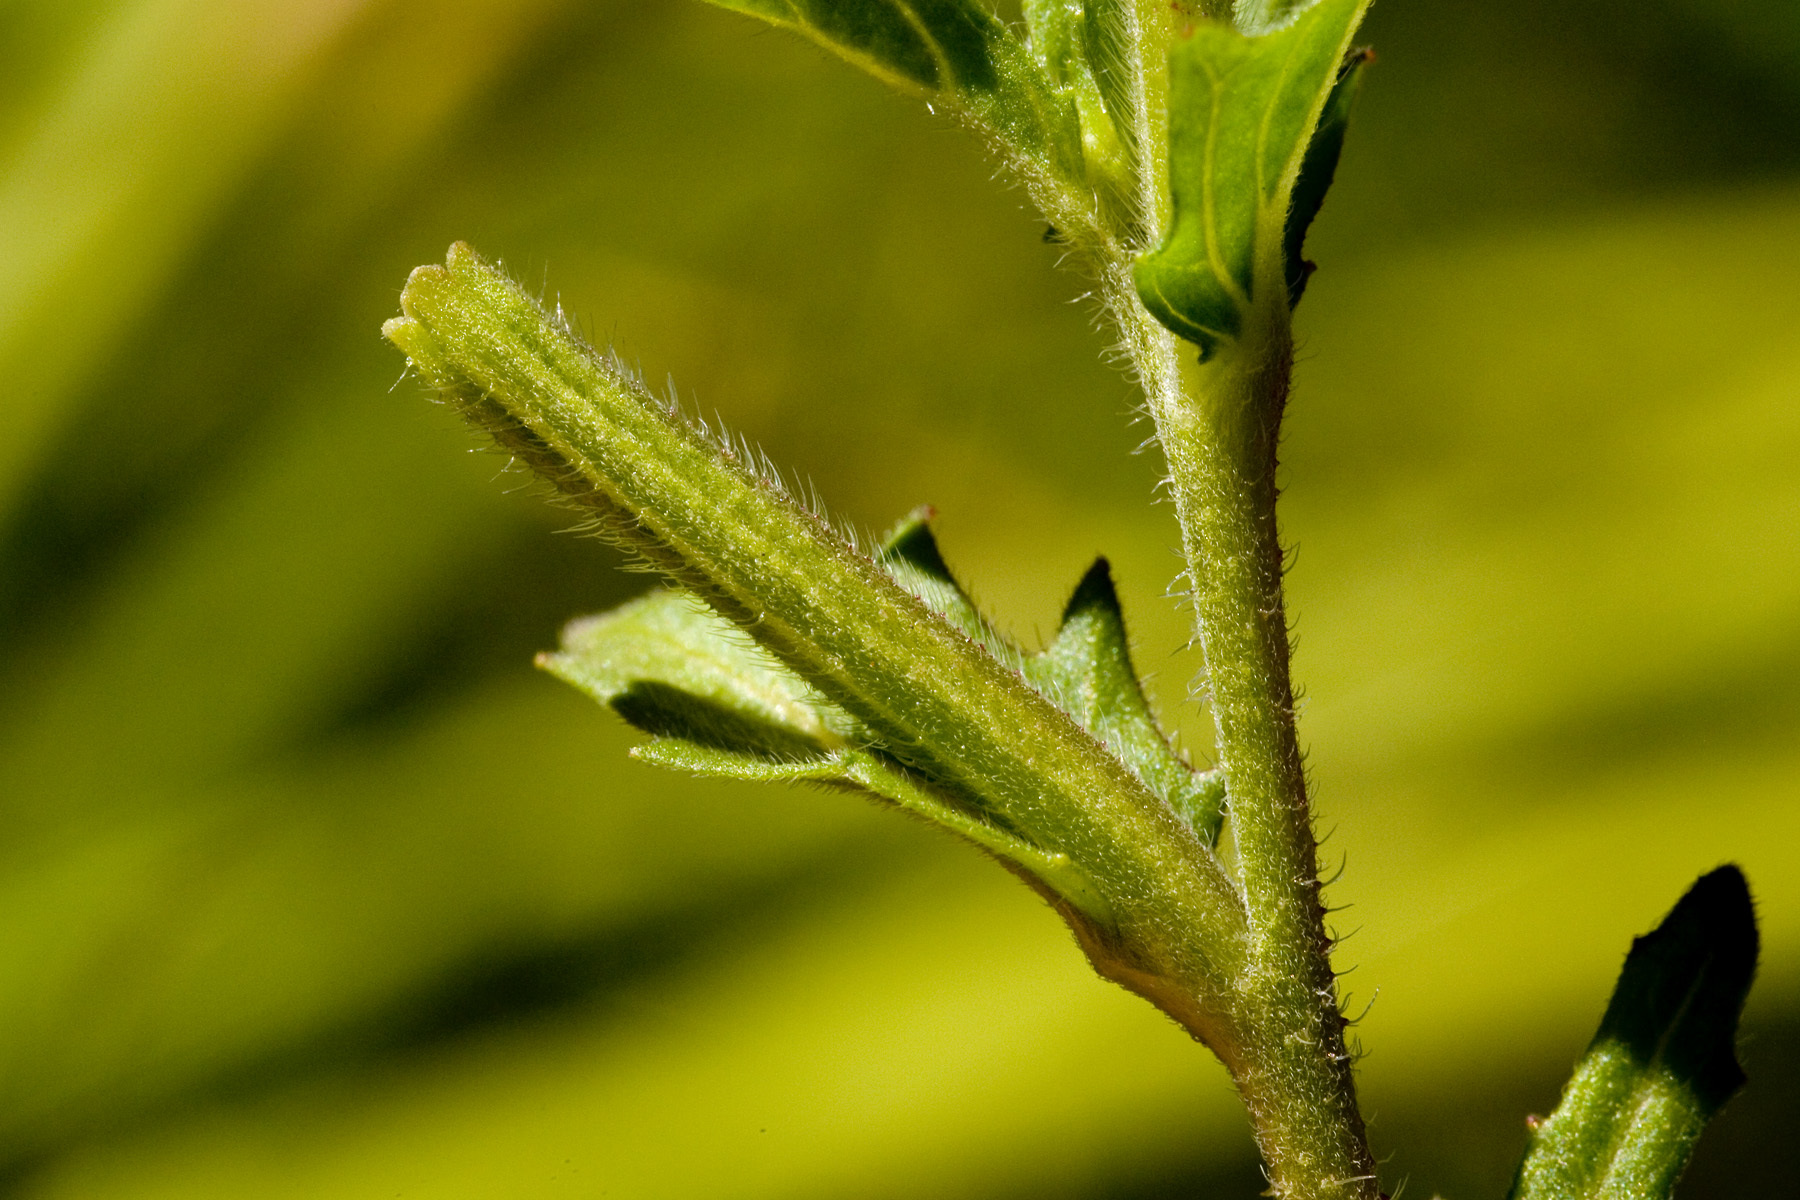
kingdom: Plantae
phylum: Tracheophyta
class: Magnoliopsida
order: Myrtales
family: Onagraceae
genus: Oenothera
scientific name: Oenothera pubescens
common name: South american evening-primrose
